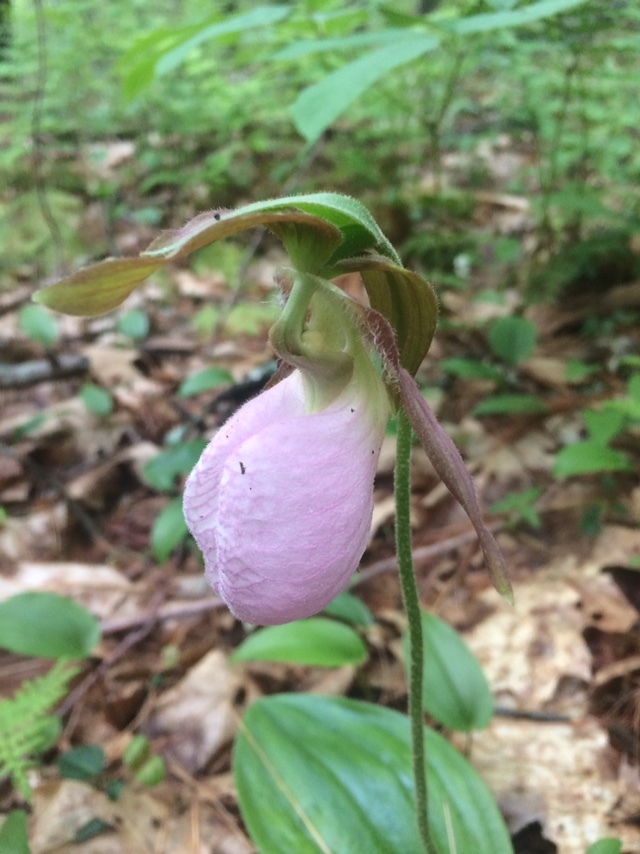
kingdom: Plantae
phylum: Tracheophyta
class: Liliopsida
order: Asparagales
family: Orchidaceae
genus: Cypripedium
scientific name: Cypripedium acaule
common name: Pink lady's-slipper
